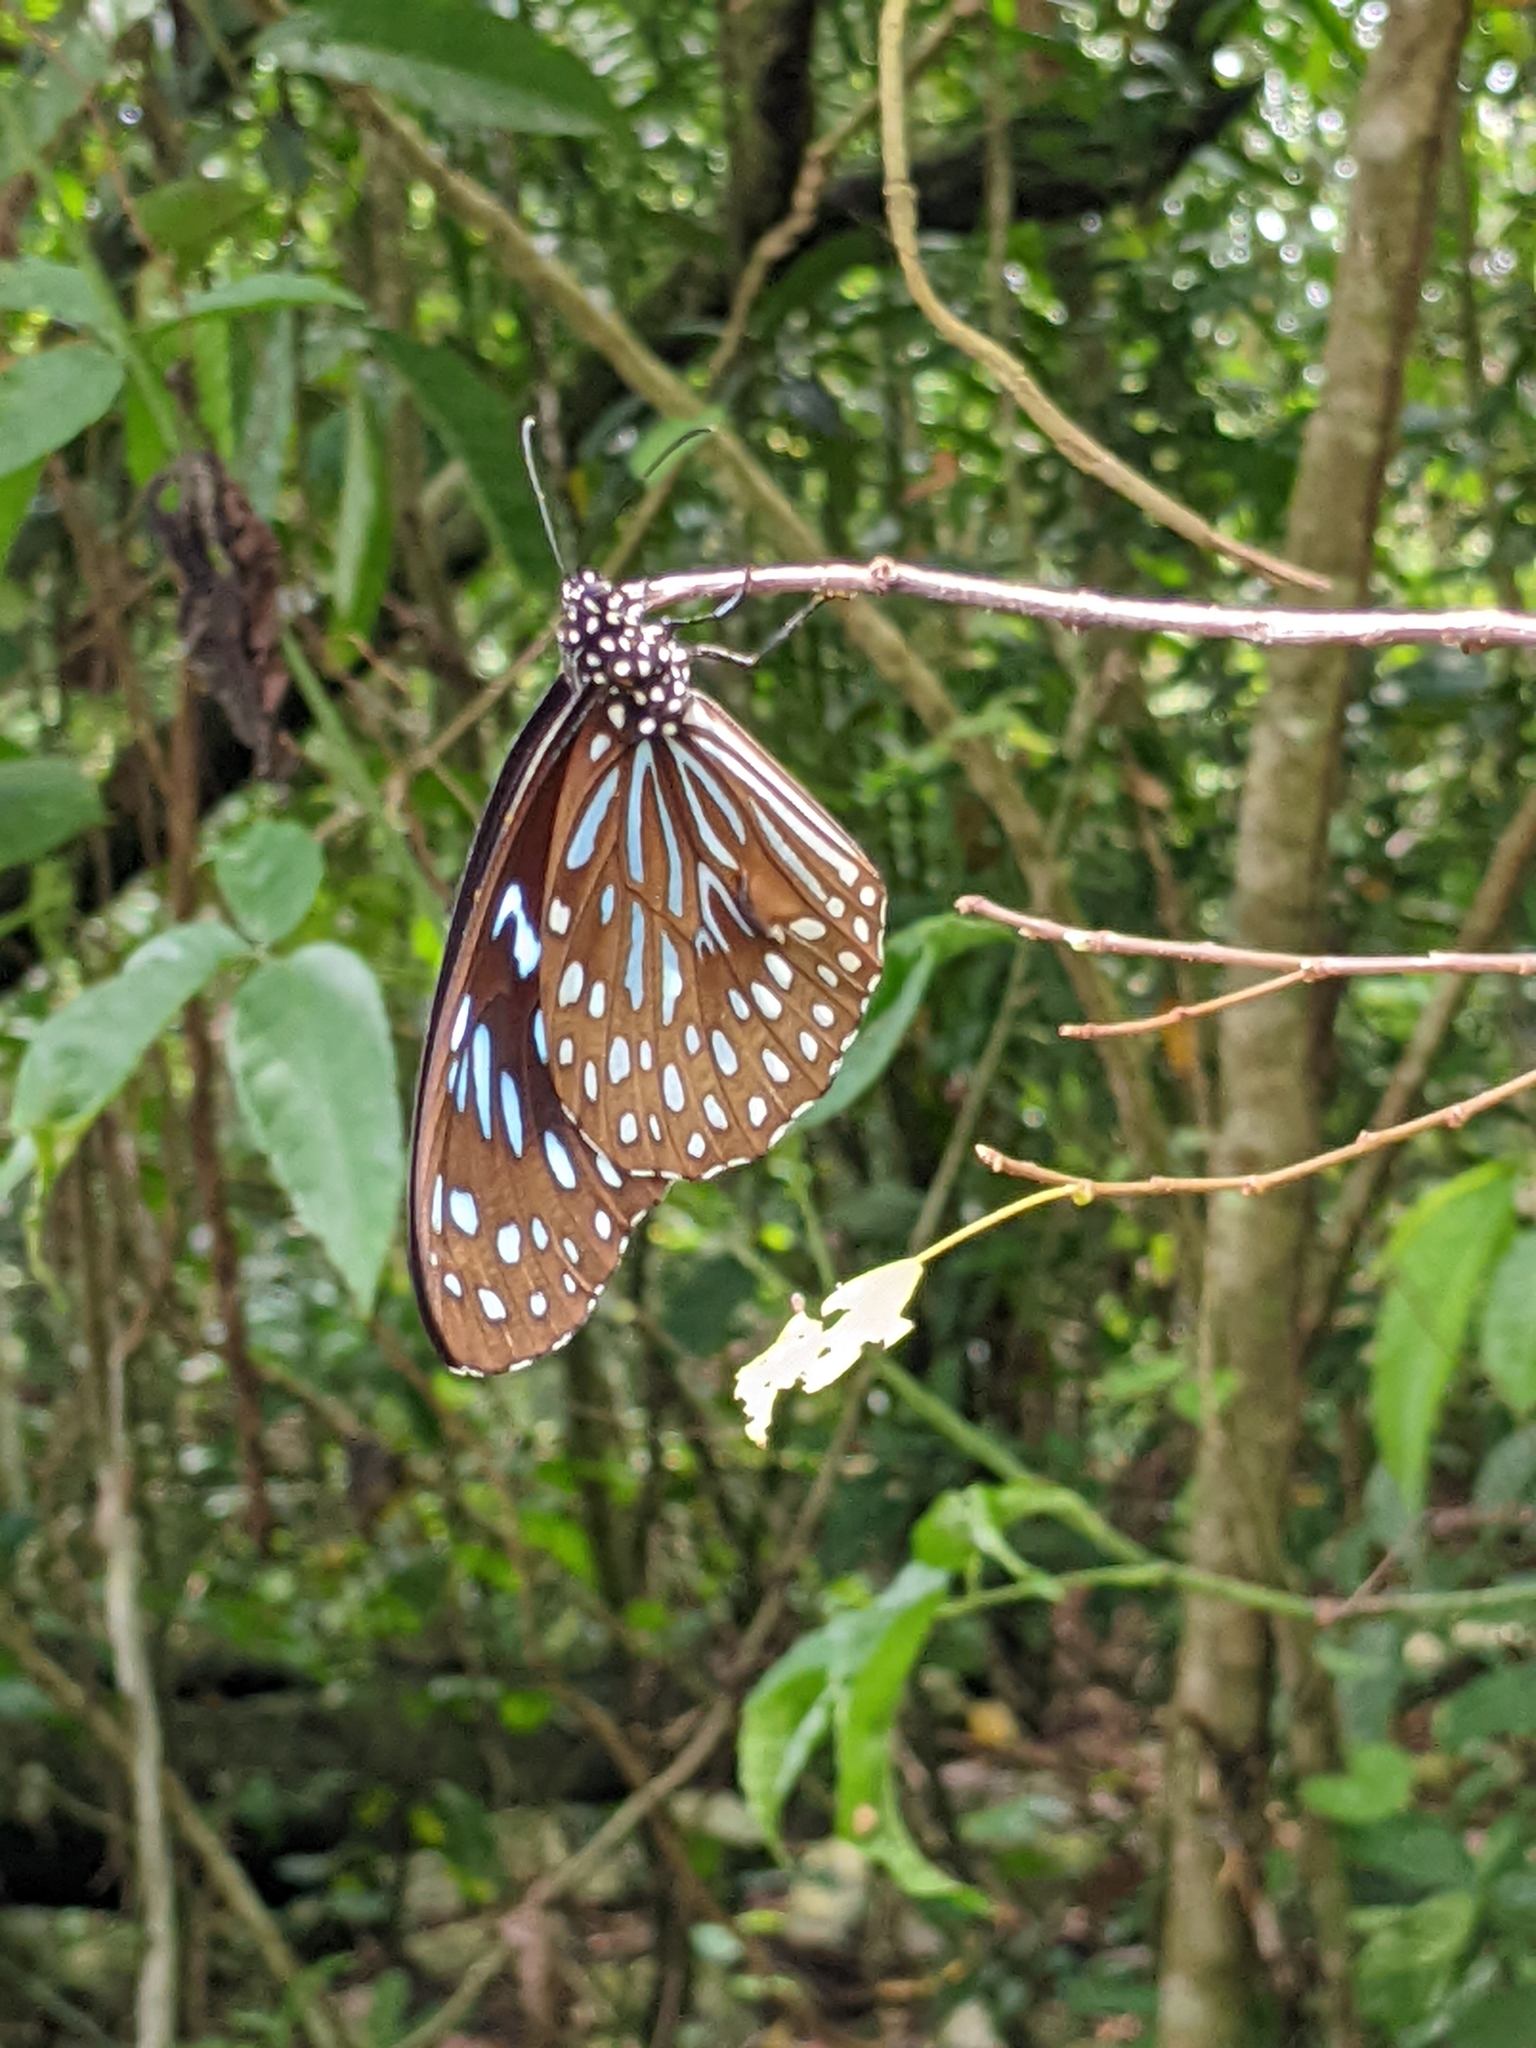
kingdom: Animalia
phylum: Arthropoda
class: Insecta
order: Lepidoptera
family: Nymphalidae
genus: Tirumala
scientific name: Tirumala septentrionis
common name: Dark blue tiger butterfly
